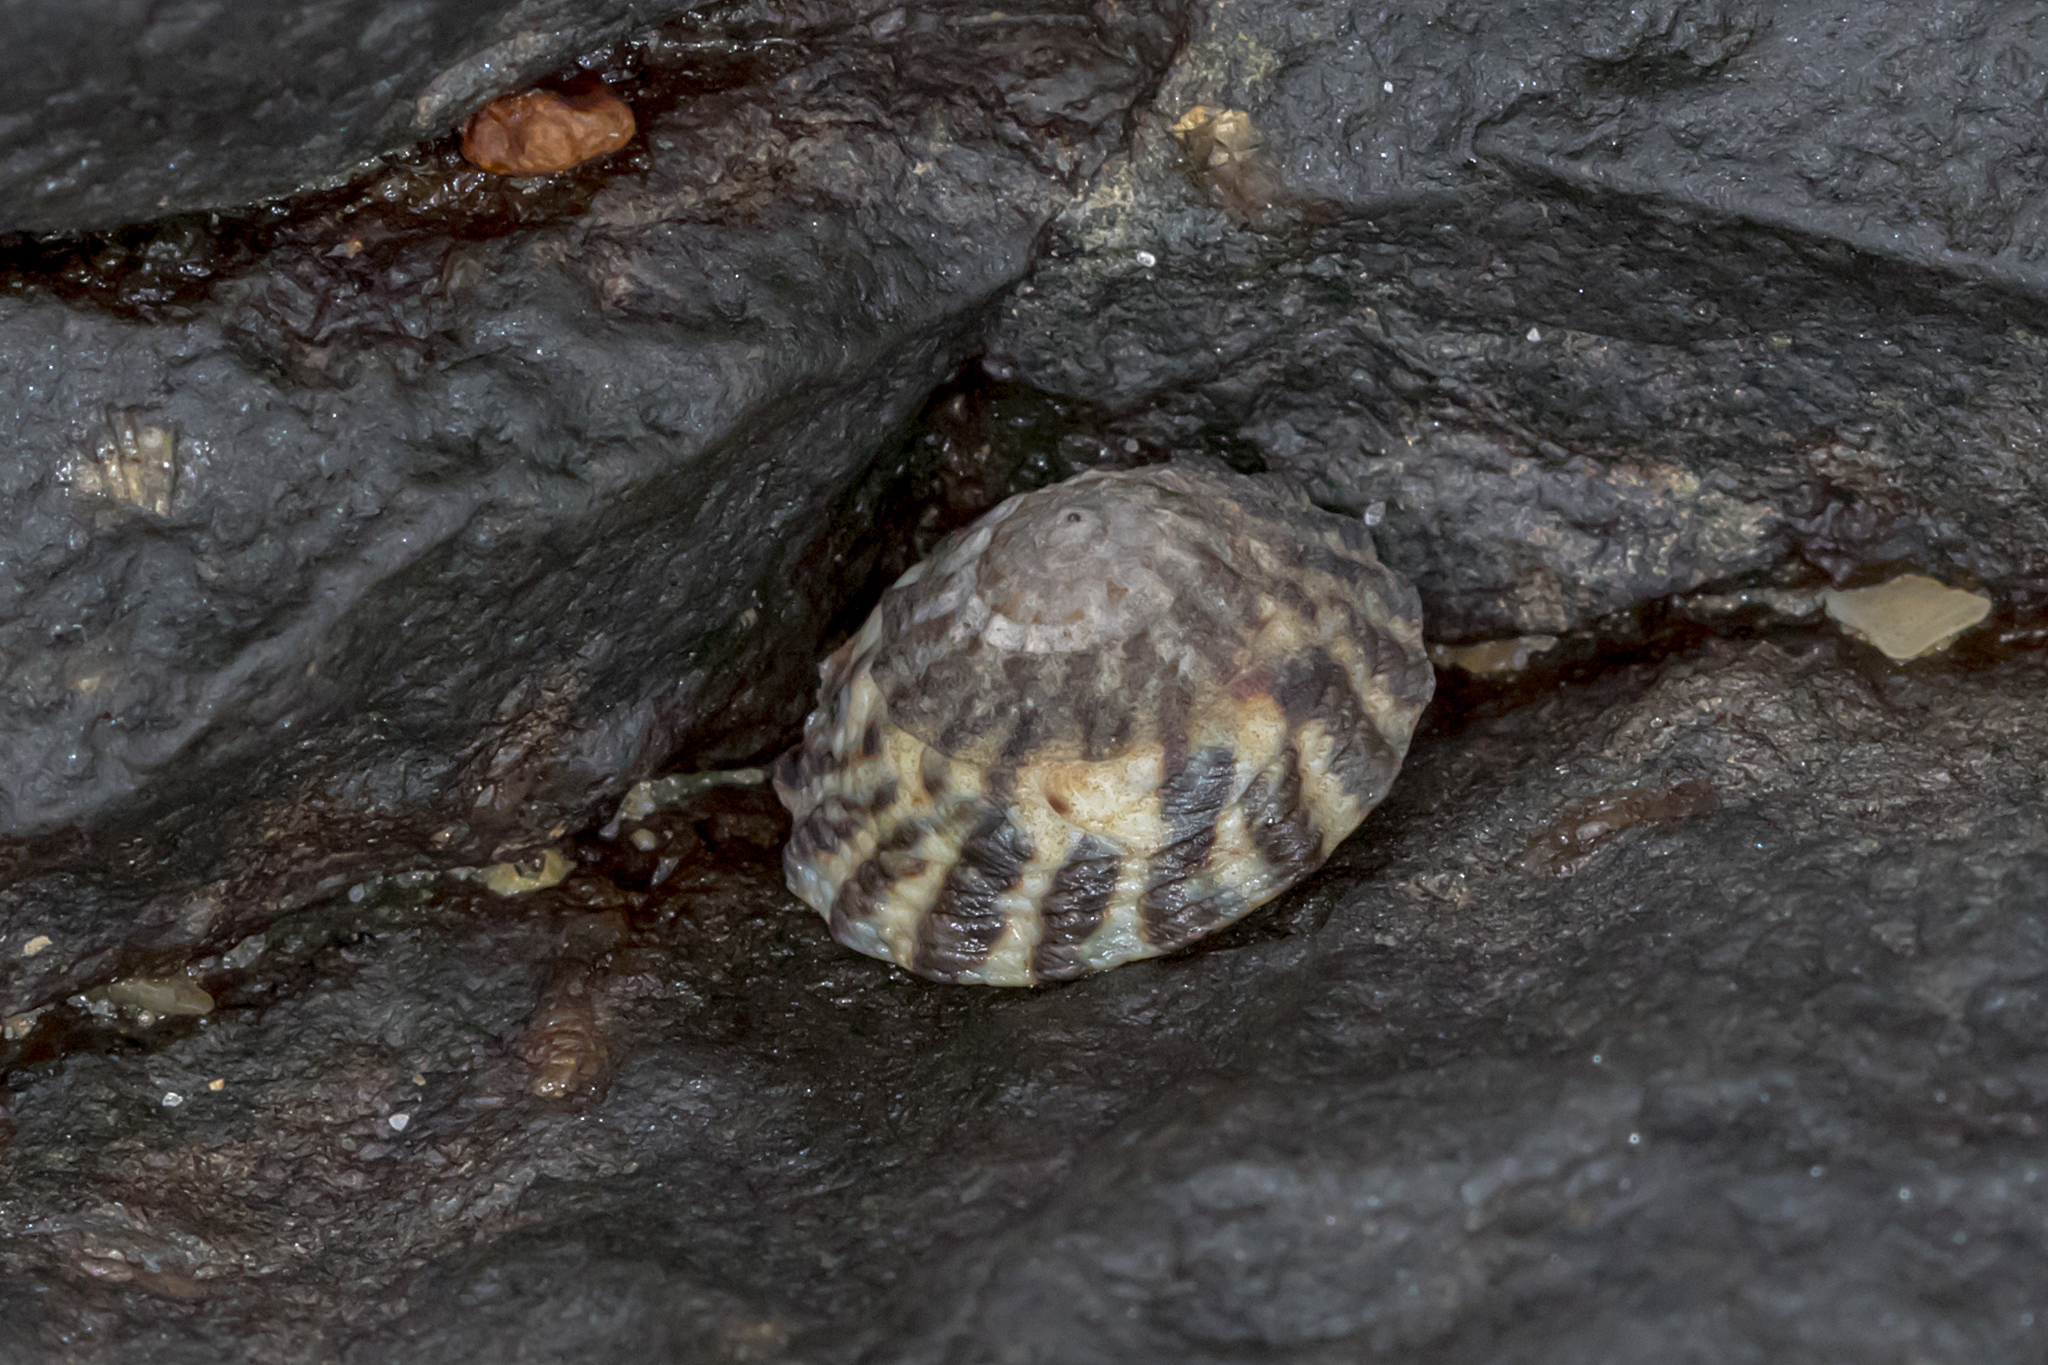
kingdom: Animalia
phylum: Mollusca
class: Gastropoda
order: Littorinimorpha
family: Littorinidae
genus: Bembicium
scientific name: Bembicium auratum
